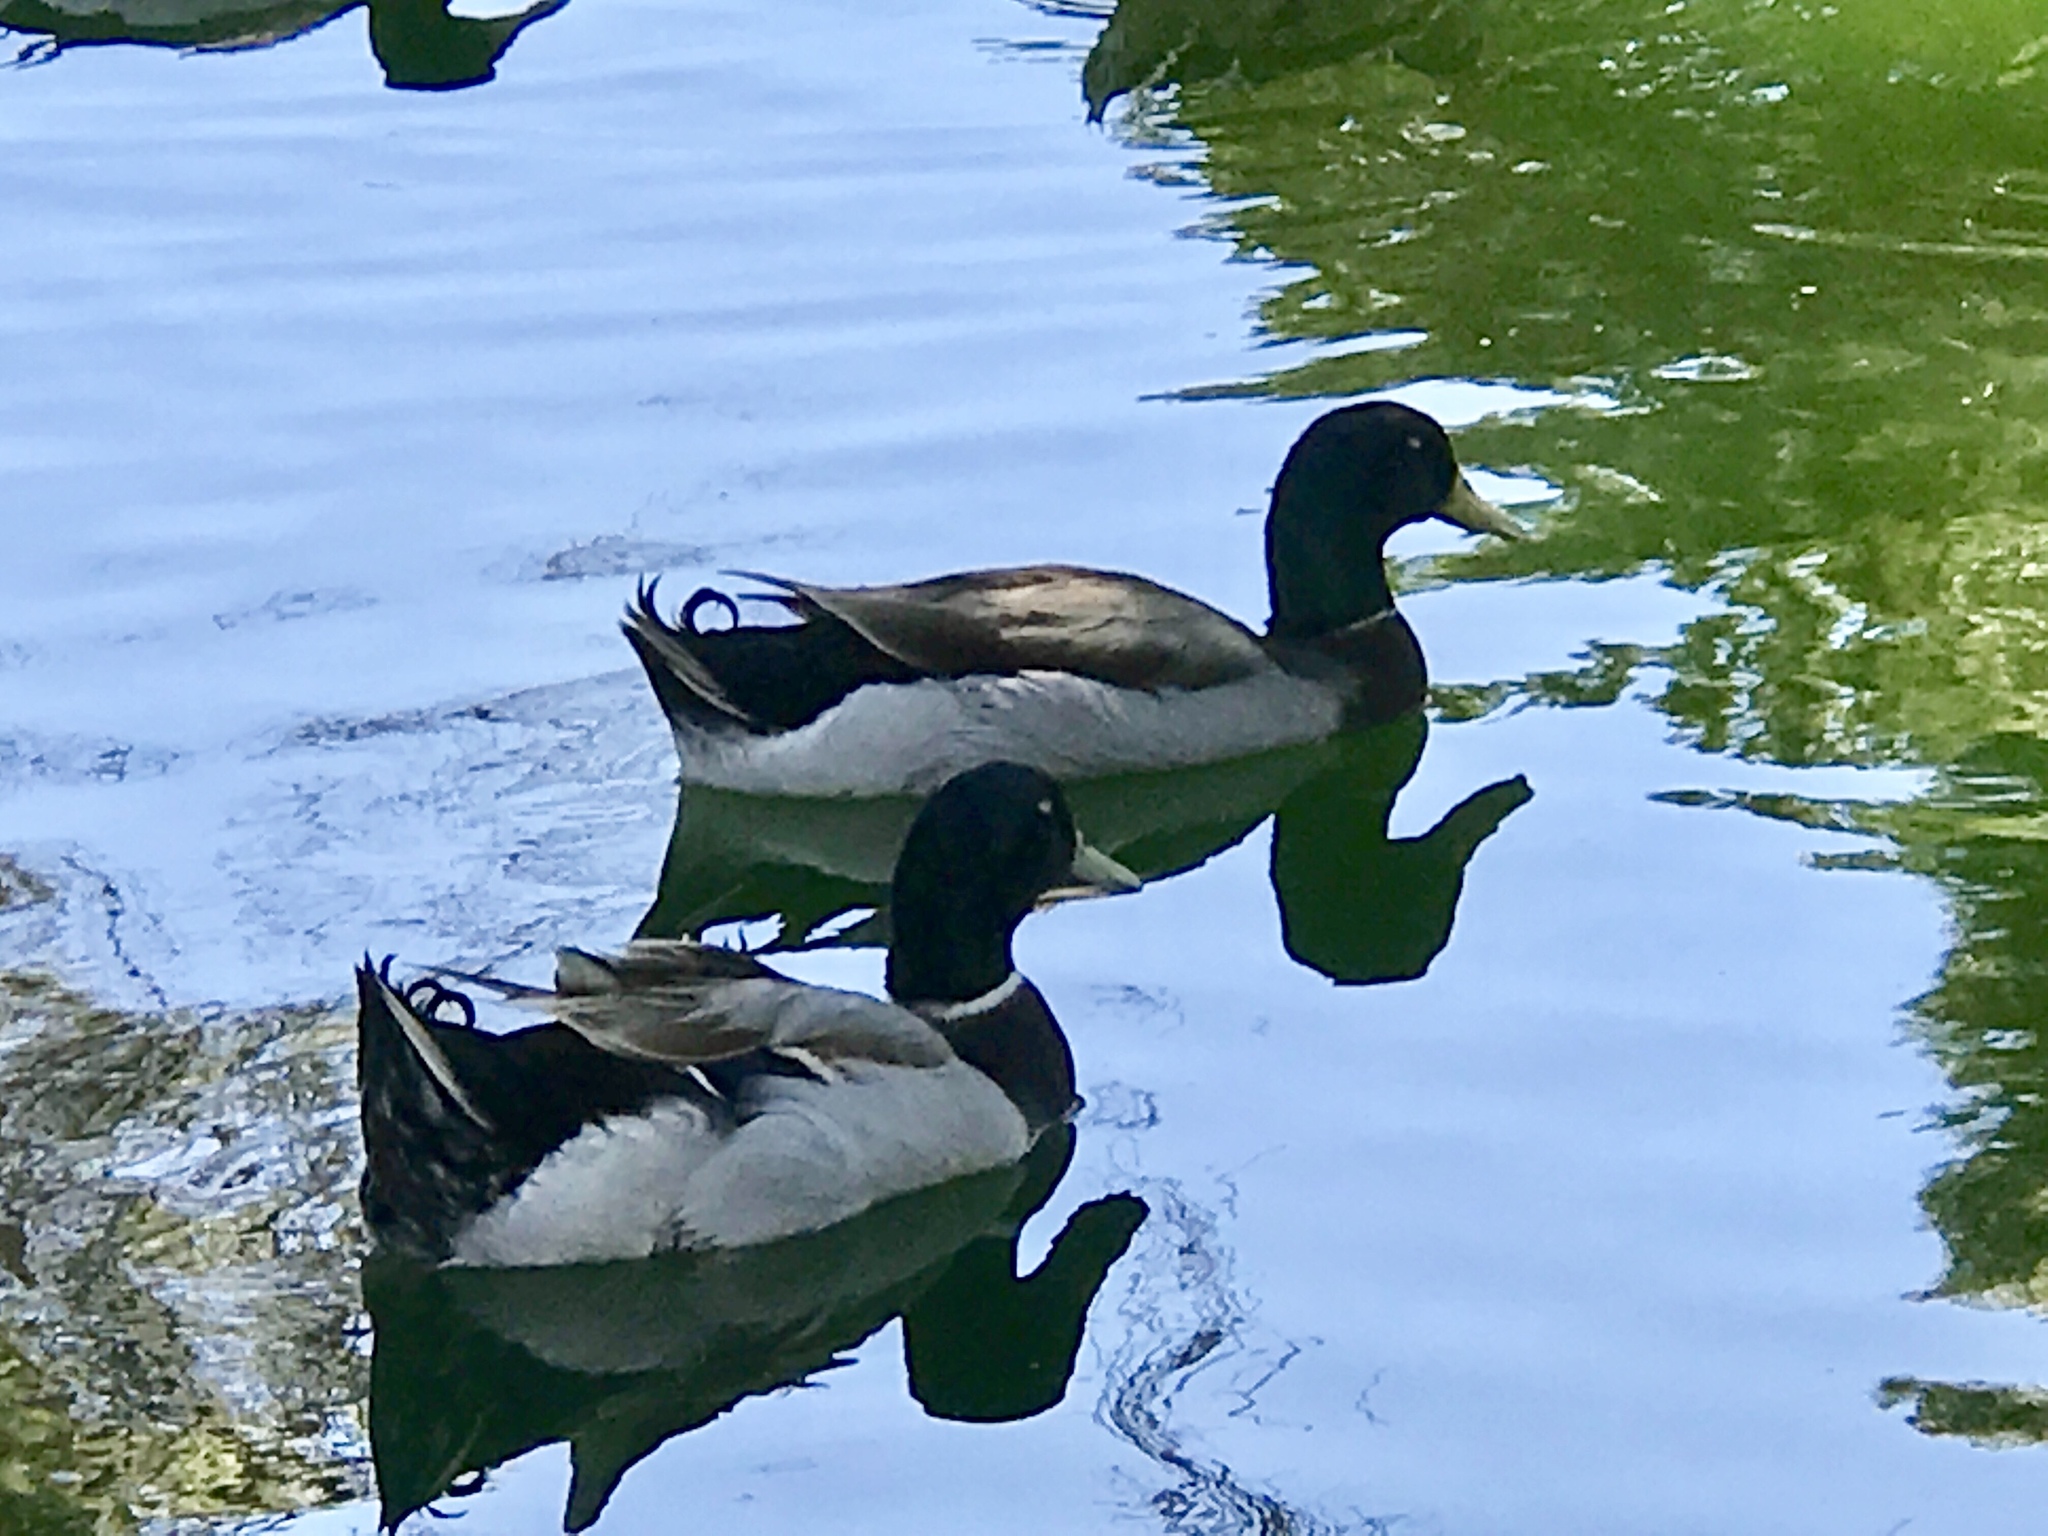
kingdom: Animalia
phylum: Chordata
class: Aves
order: Anseriformes
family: Anatidae
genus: Anas
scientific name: Anas platyrhynchos
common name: Mallard
